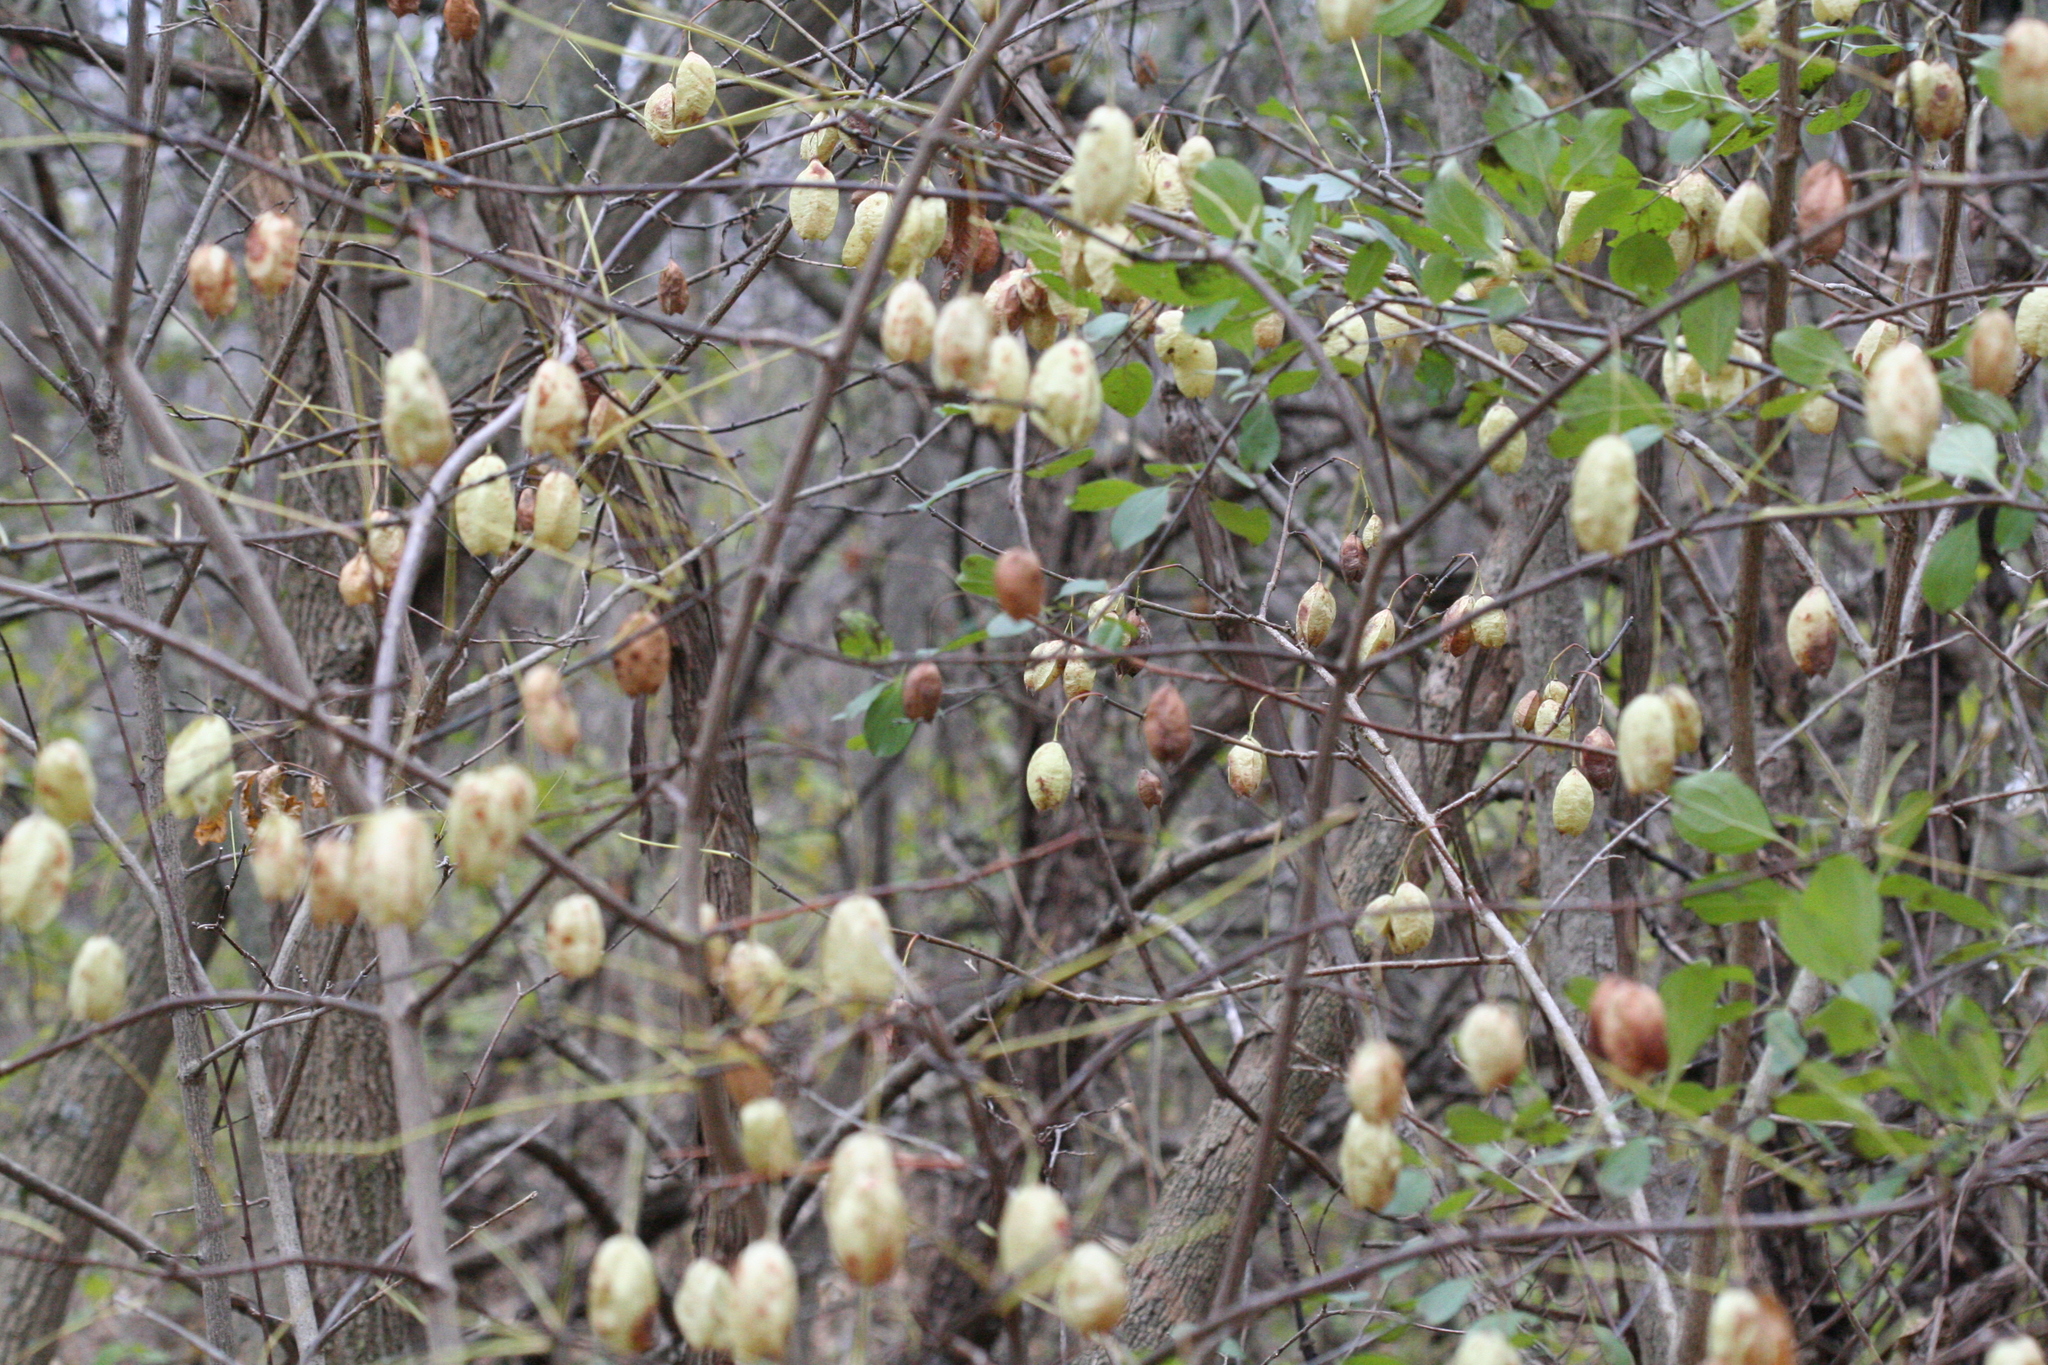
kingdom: Plantae
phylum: Tracheophyta
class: Magnoliopsida
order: Crossosomatales
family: Staphyleaceae
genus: Staphylea
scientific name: Staphylea trifolia
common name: American bladdernut
